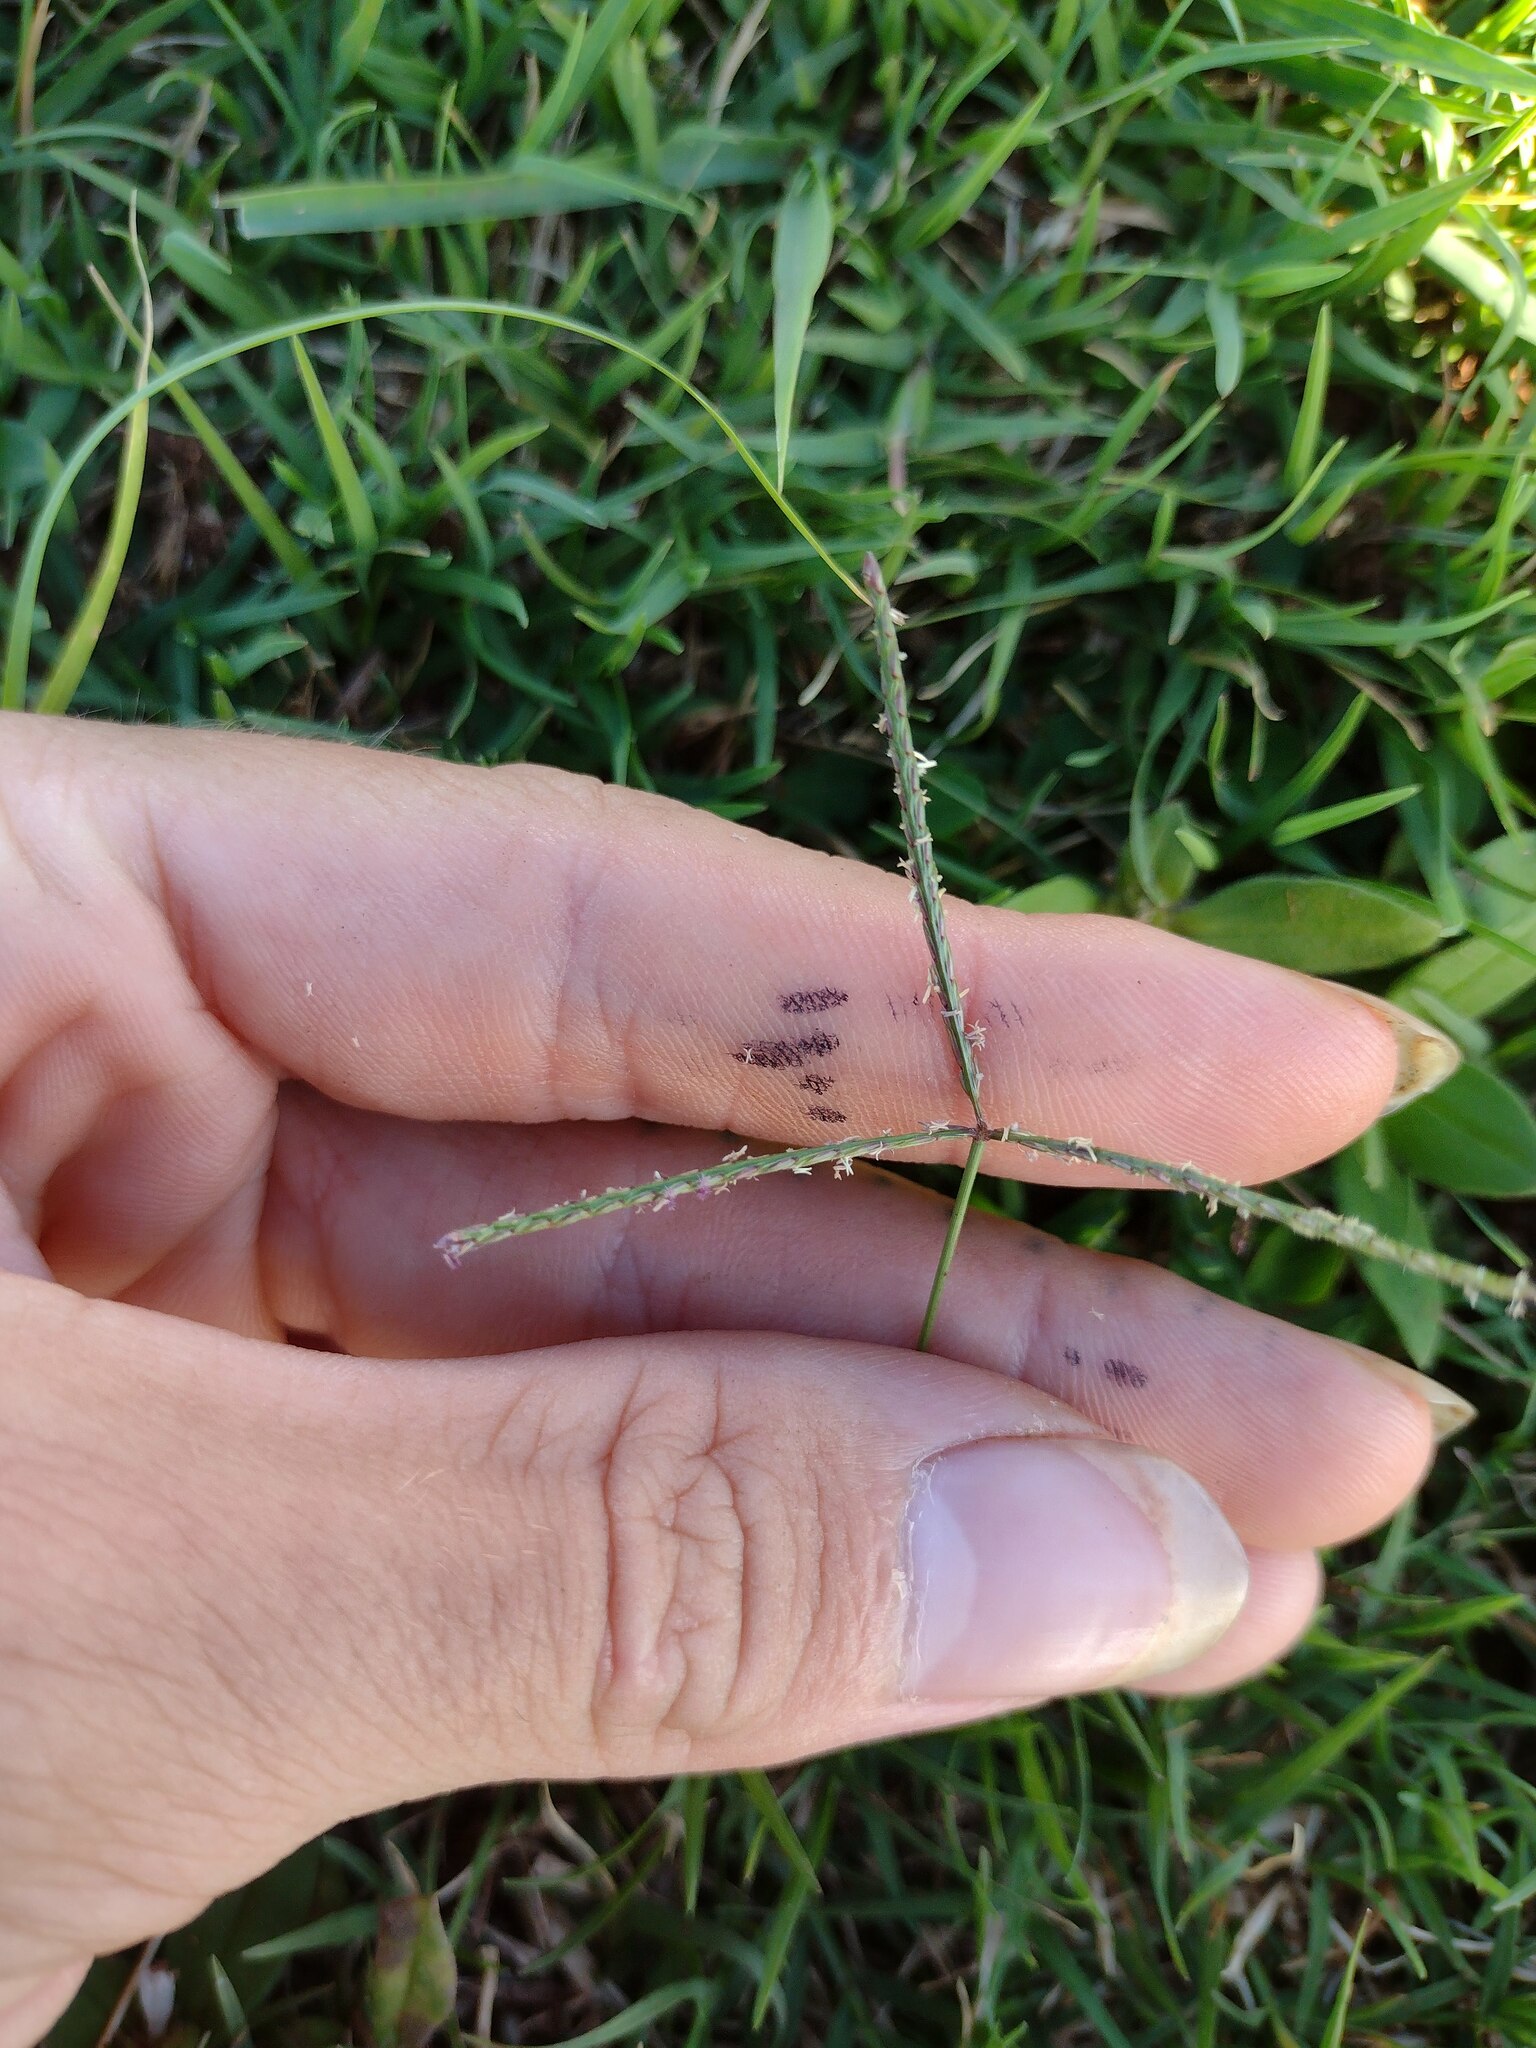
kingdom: Plantae
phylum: Tracheophyta
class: Liliopsida
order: Poales
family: Poaceae
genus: Cynodon
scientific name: Cynodon dactylon
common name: Bermuda grass
